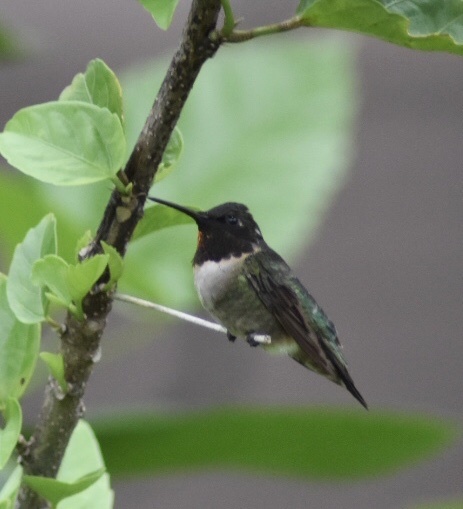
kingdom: Animalia
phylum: Chordata
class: Aves
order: Apodiformes
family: Trochilidae
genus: Archilochus
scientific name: Archilochus colubris
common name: Ruby-throated hummingbird
